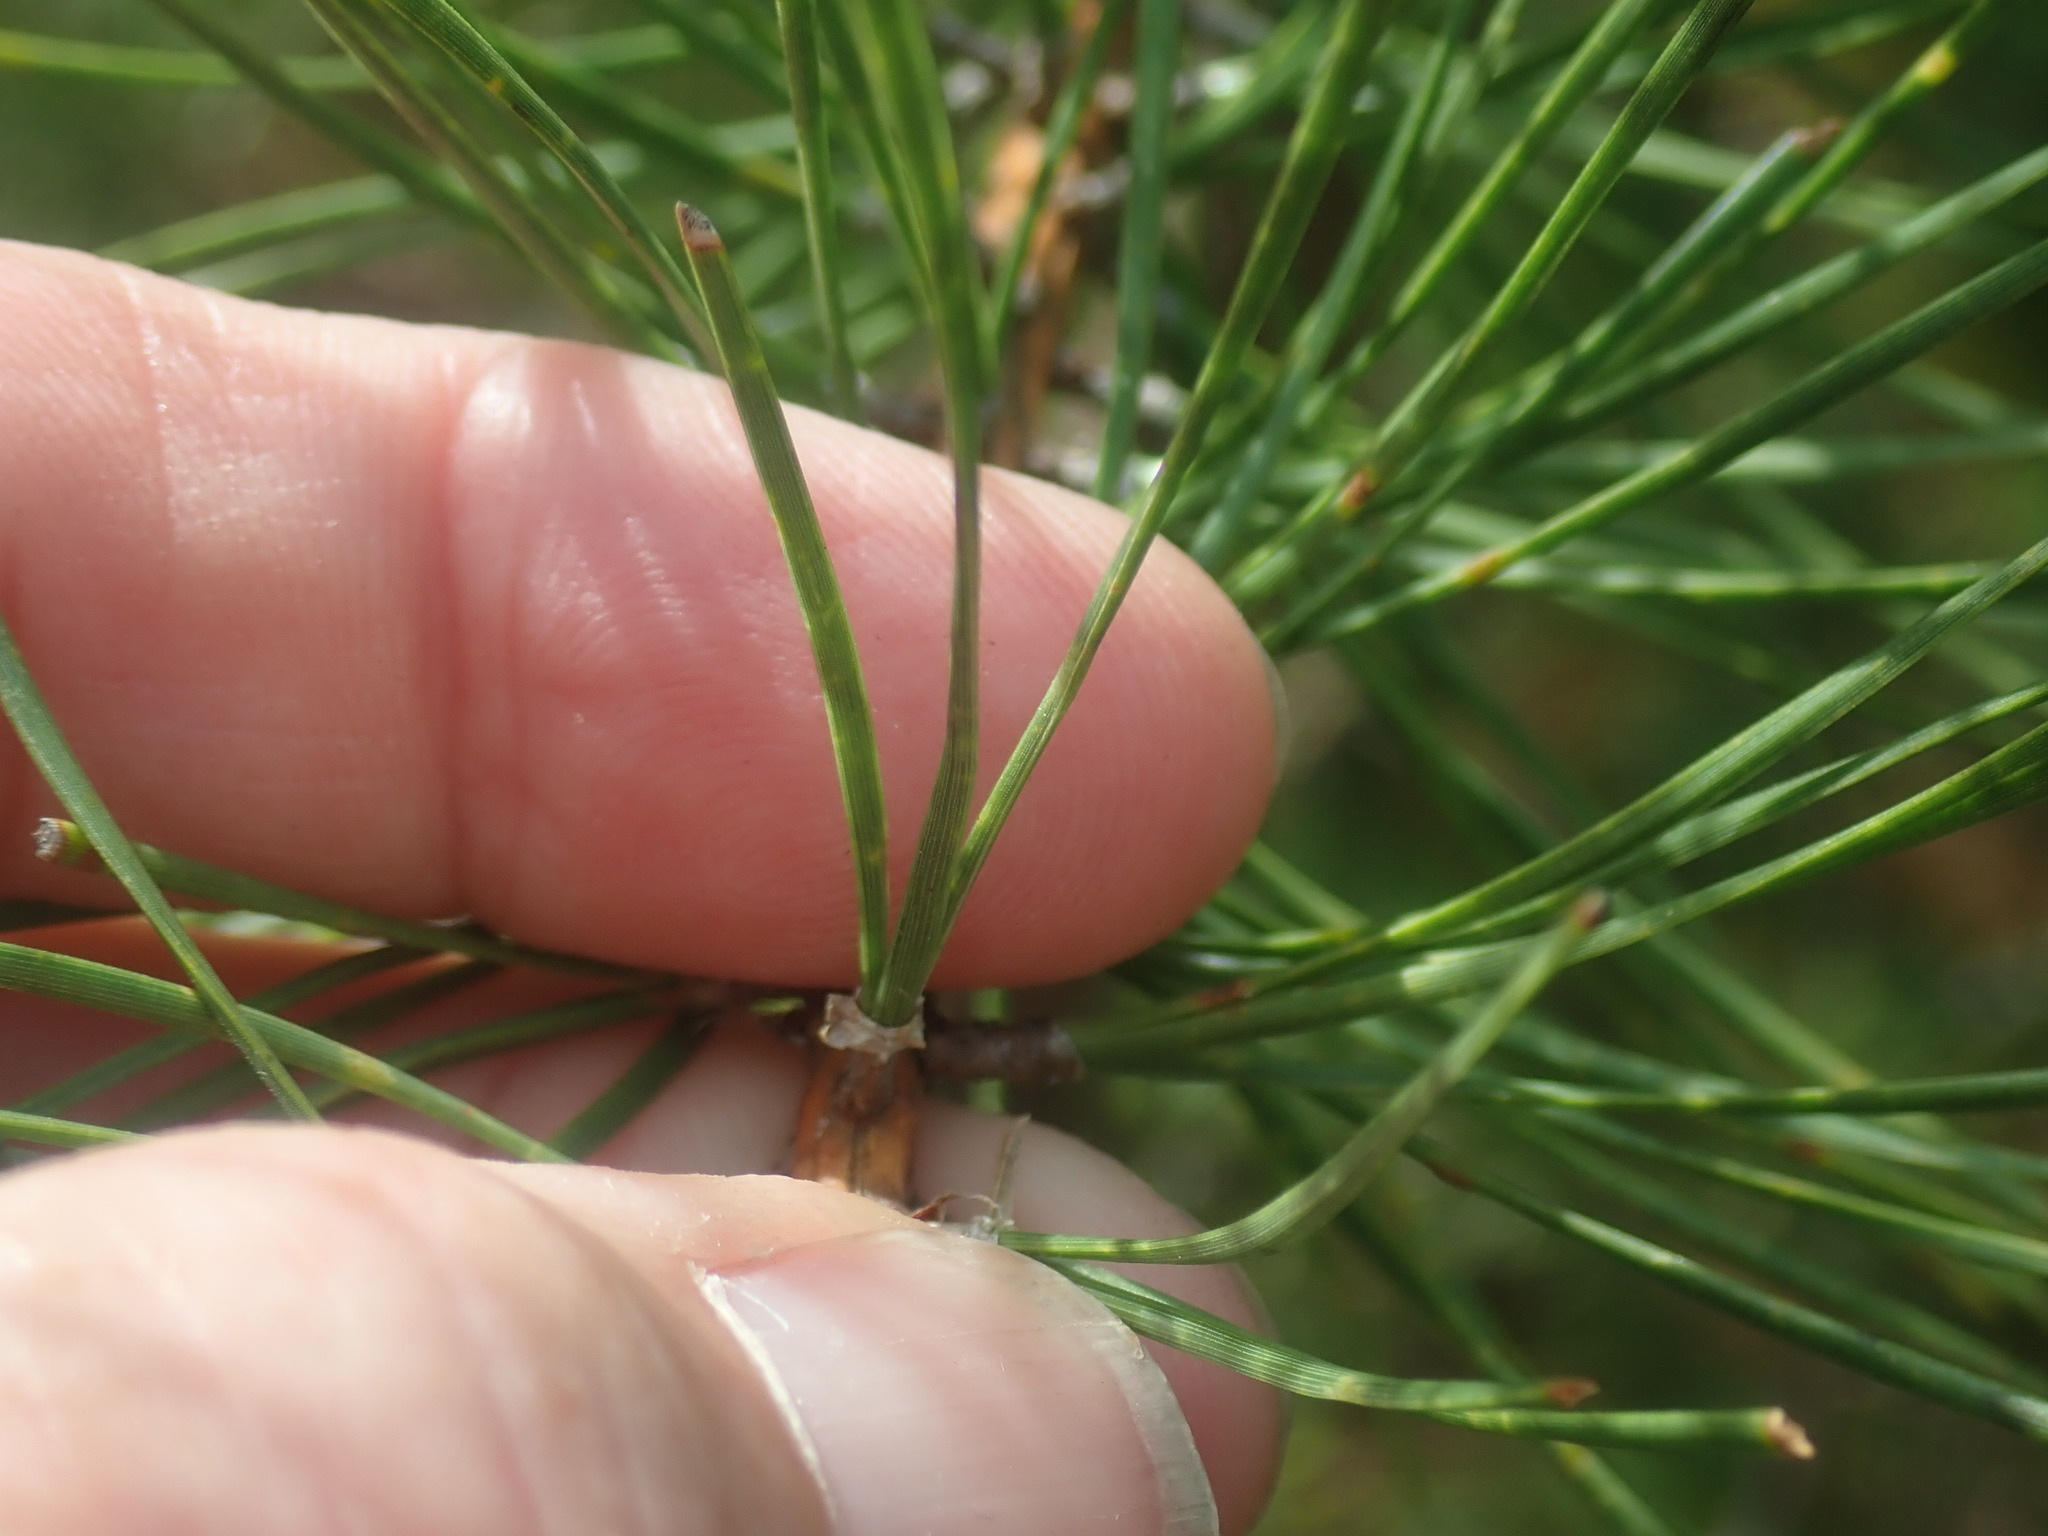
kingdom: Plantae
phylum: Tracheophyta
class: Pinopsida
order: Pinales
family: Pinaceae
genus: Pinus
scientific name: Pinus rigida
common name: Pitch pine
